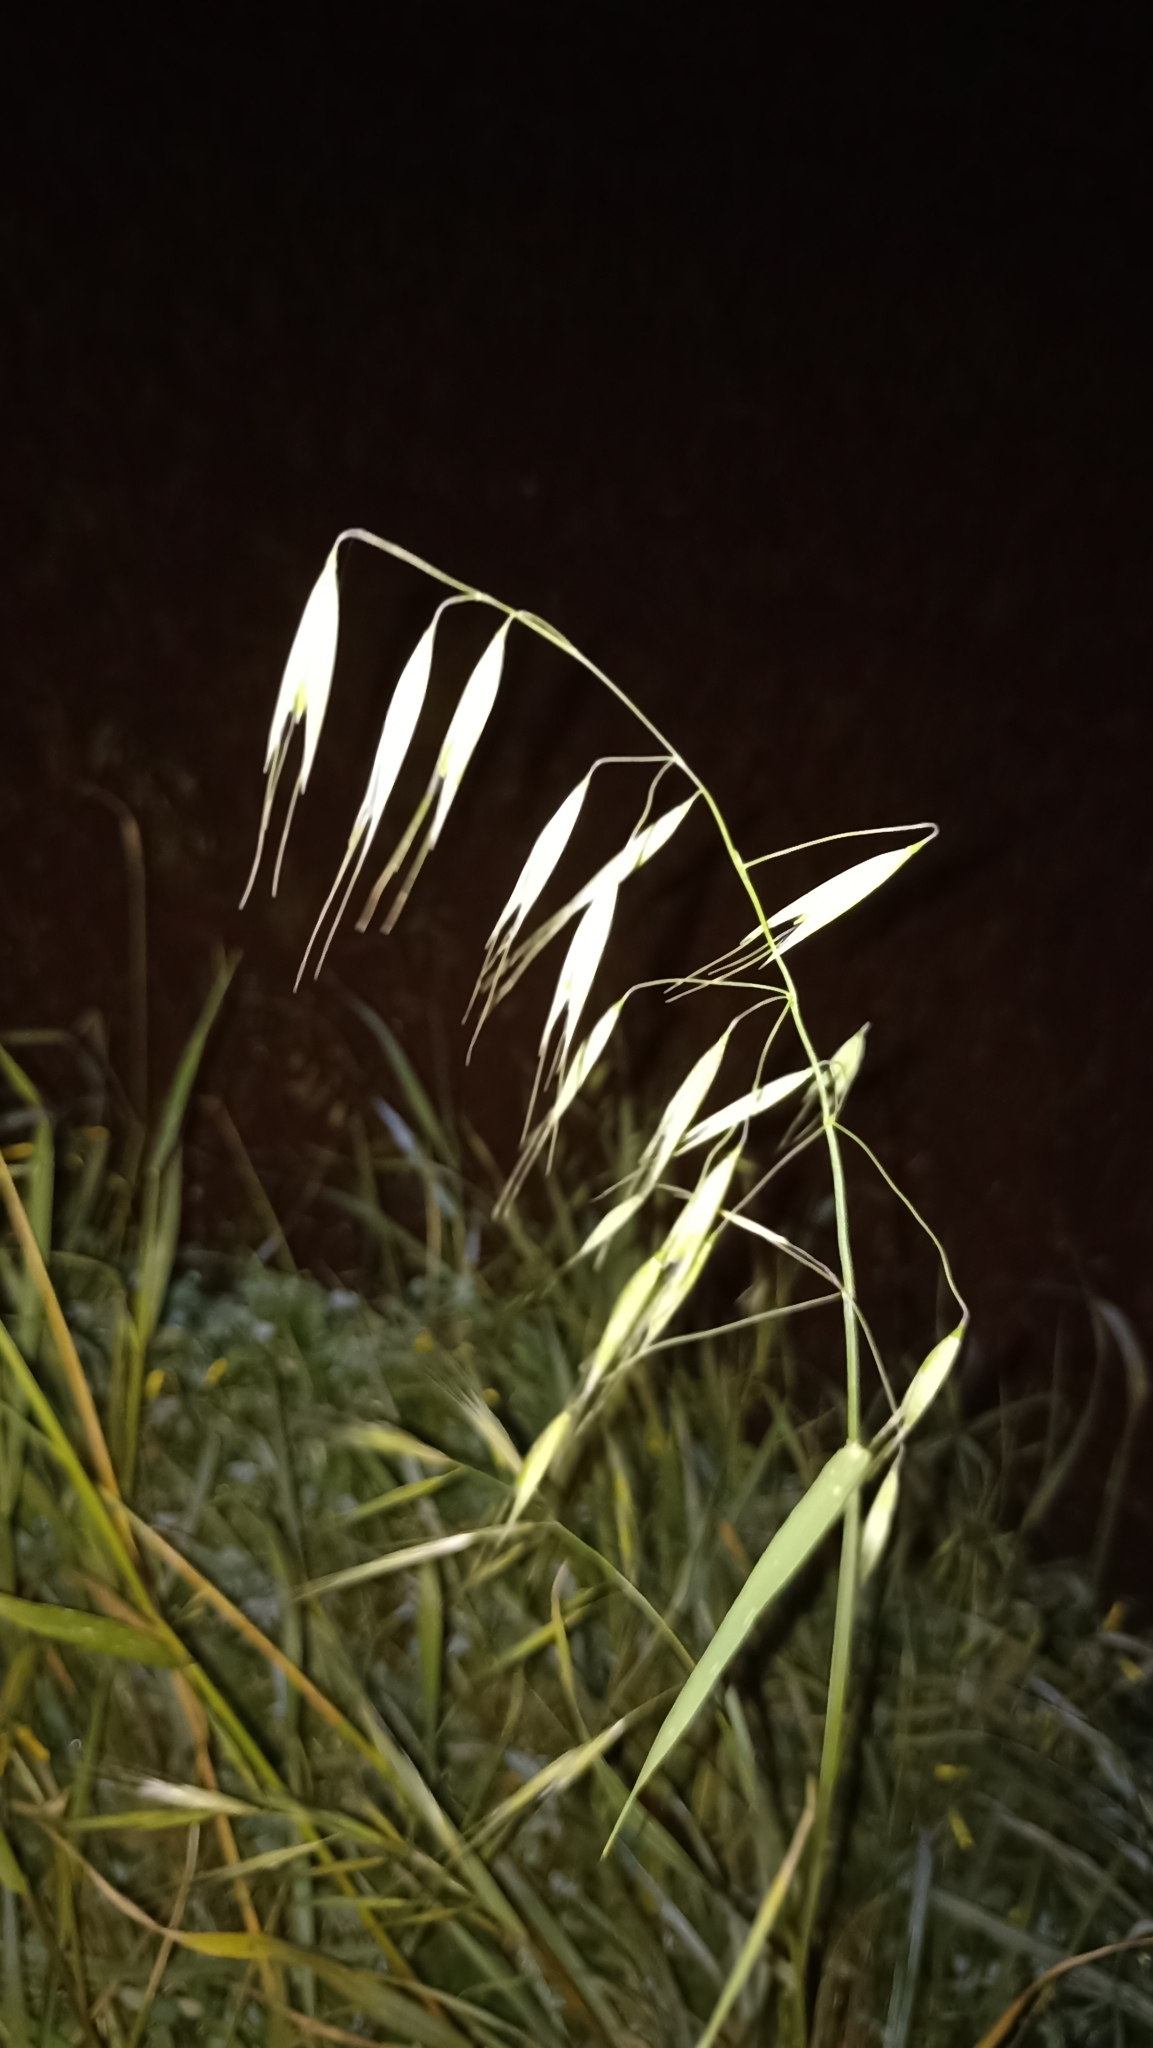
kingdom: Plantae
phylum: Tracheophyta
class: Liliopsida
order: Poales
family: Poaceae
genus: Avena
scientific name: Avena barbata
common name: Slender oat
